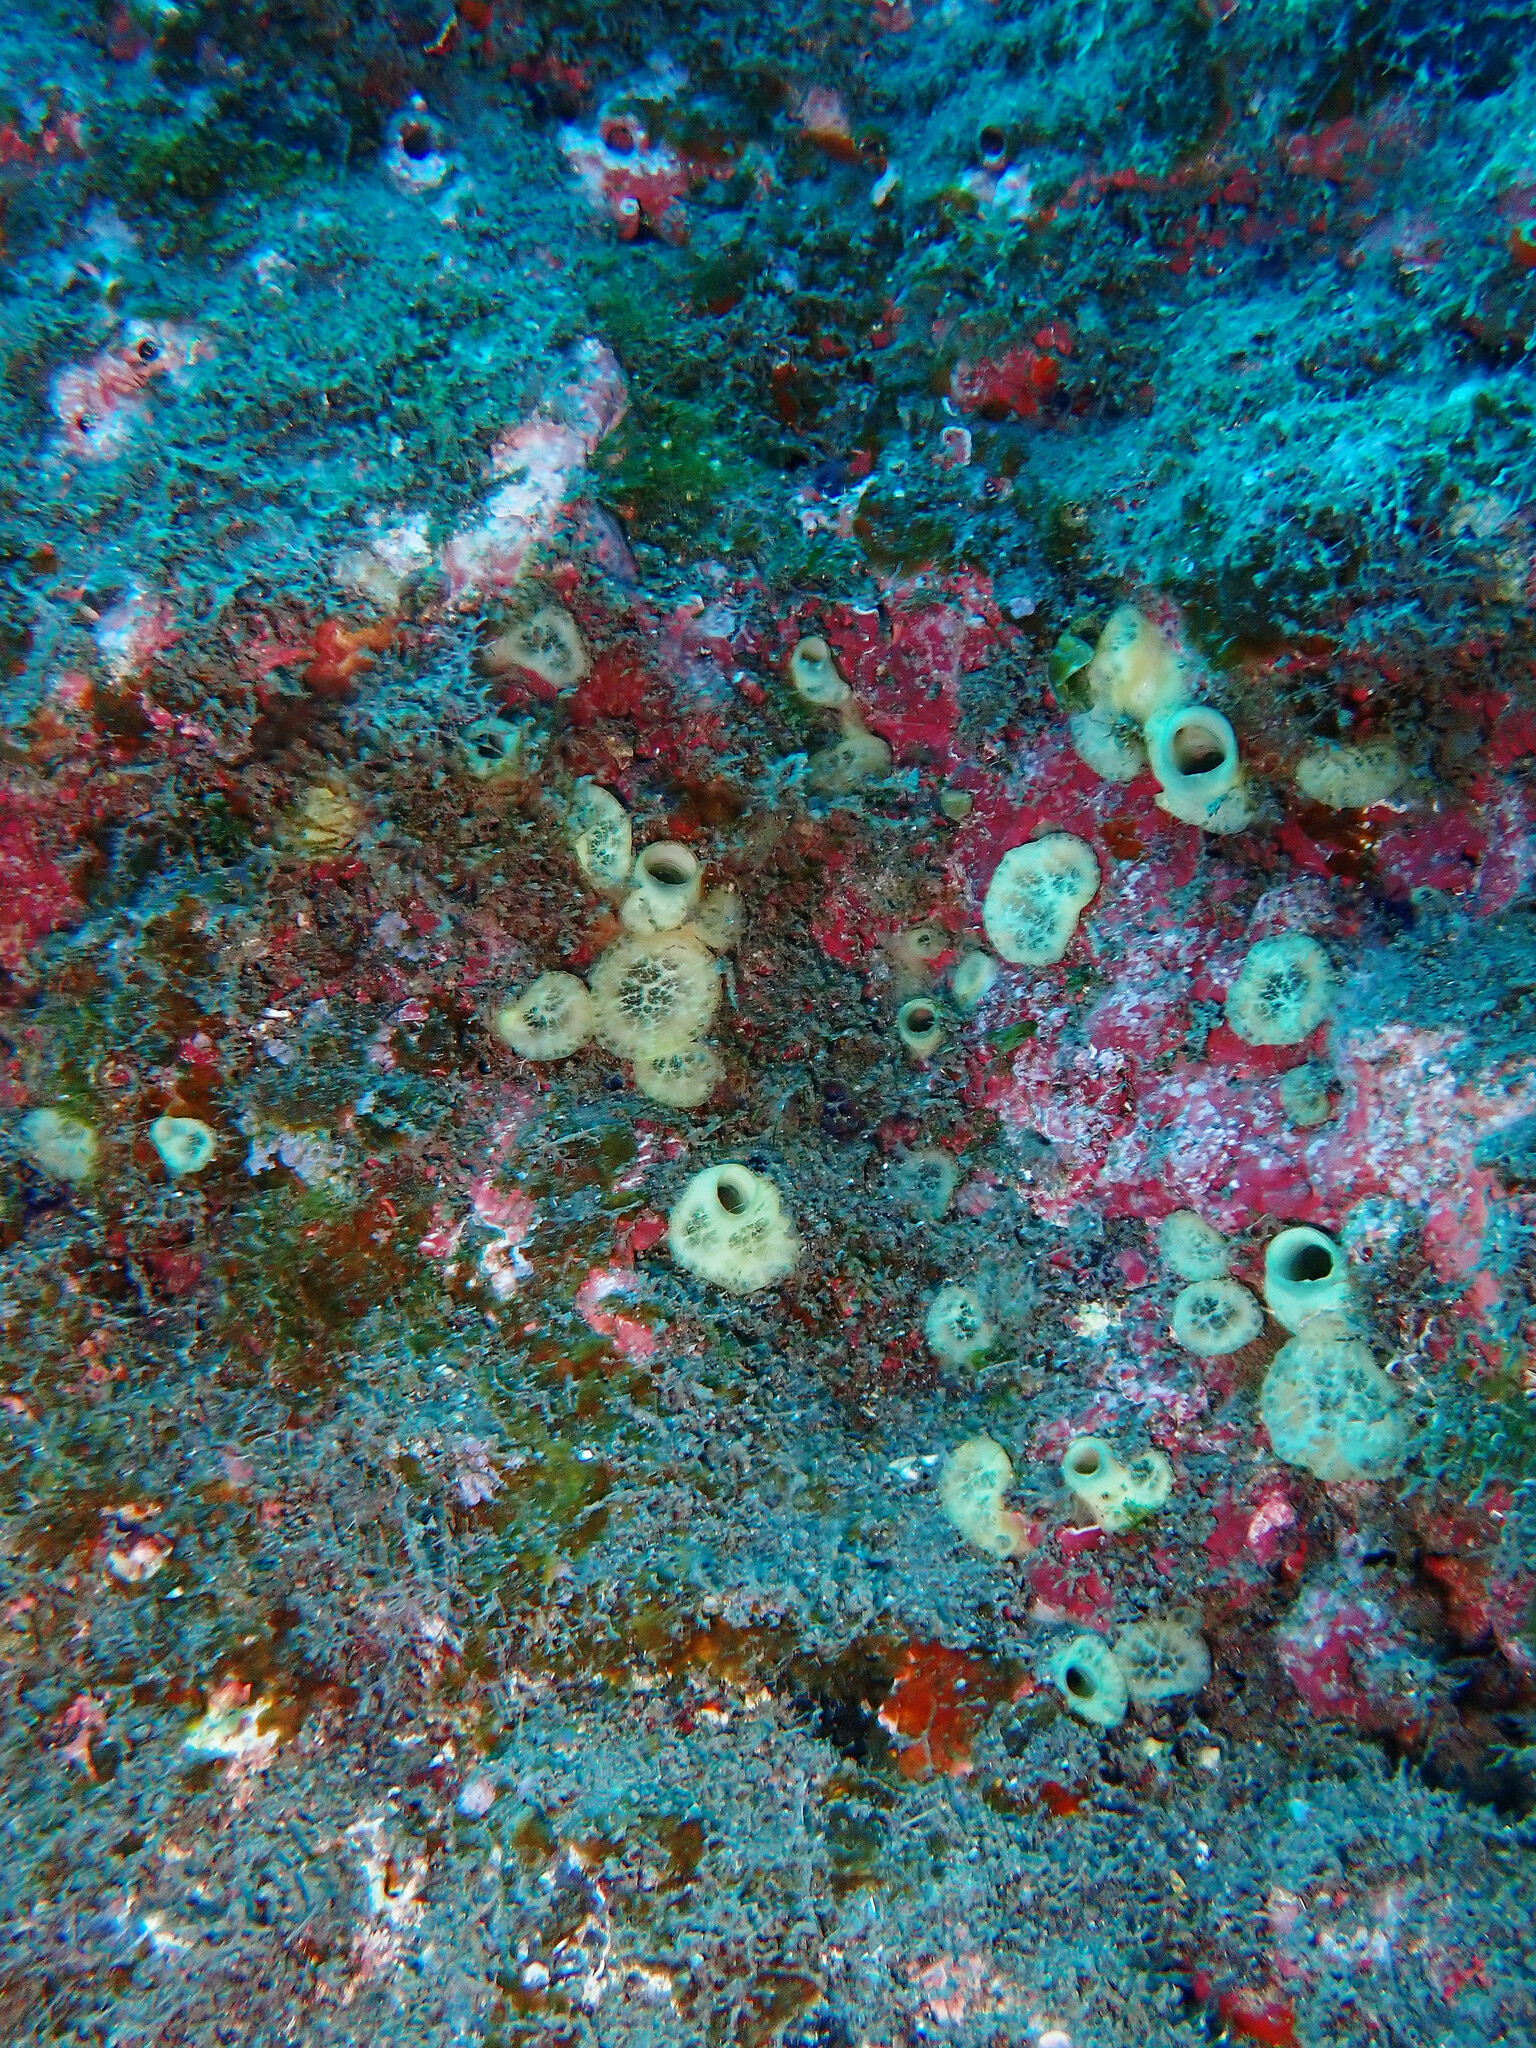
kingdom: Animalia
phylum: Porifera
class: Demospongiae
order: Clionaida
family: Clionaidae
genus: Cliona
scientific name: Cliona viridis
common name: Green boring sponge
